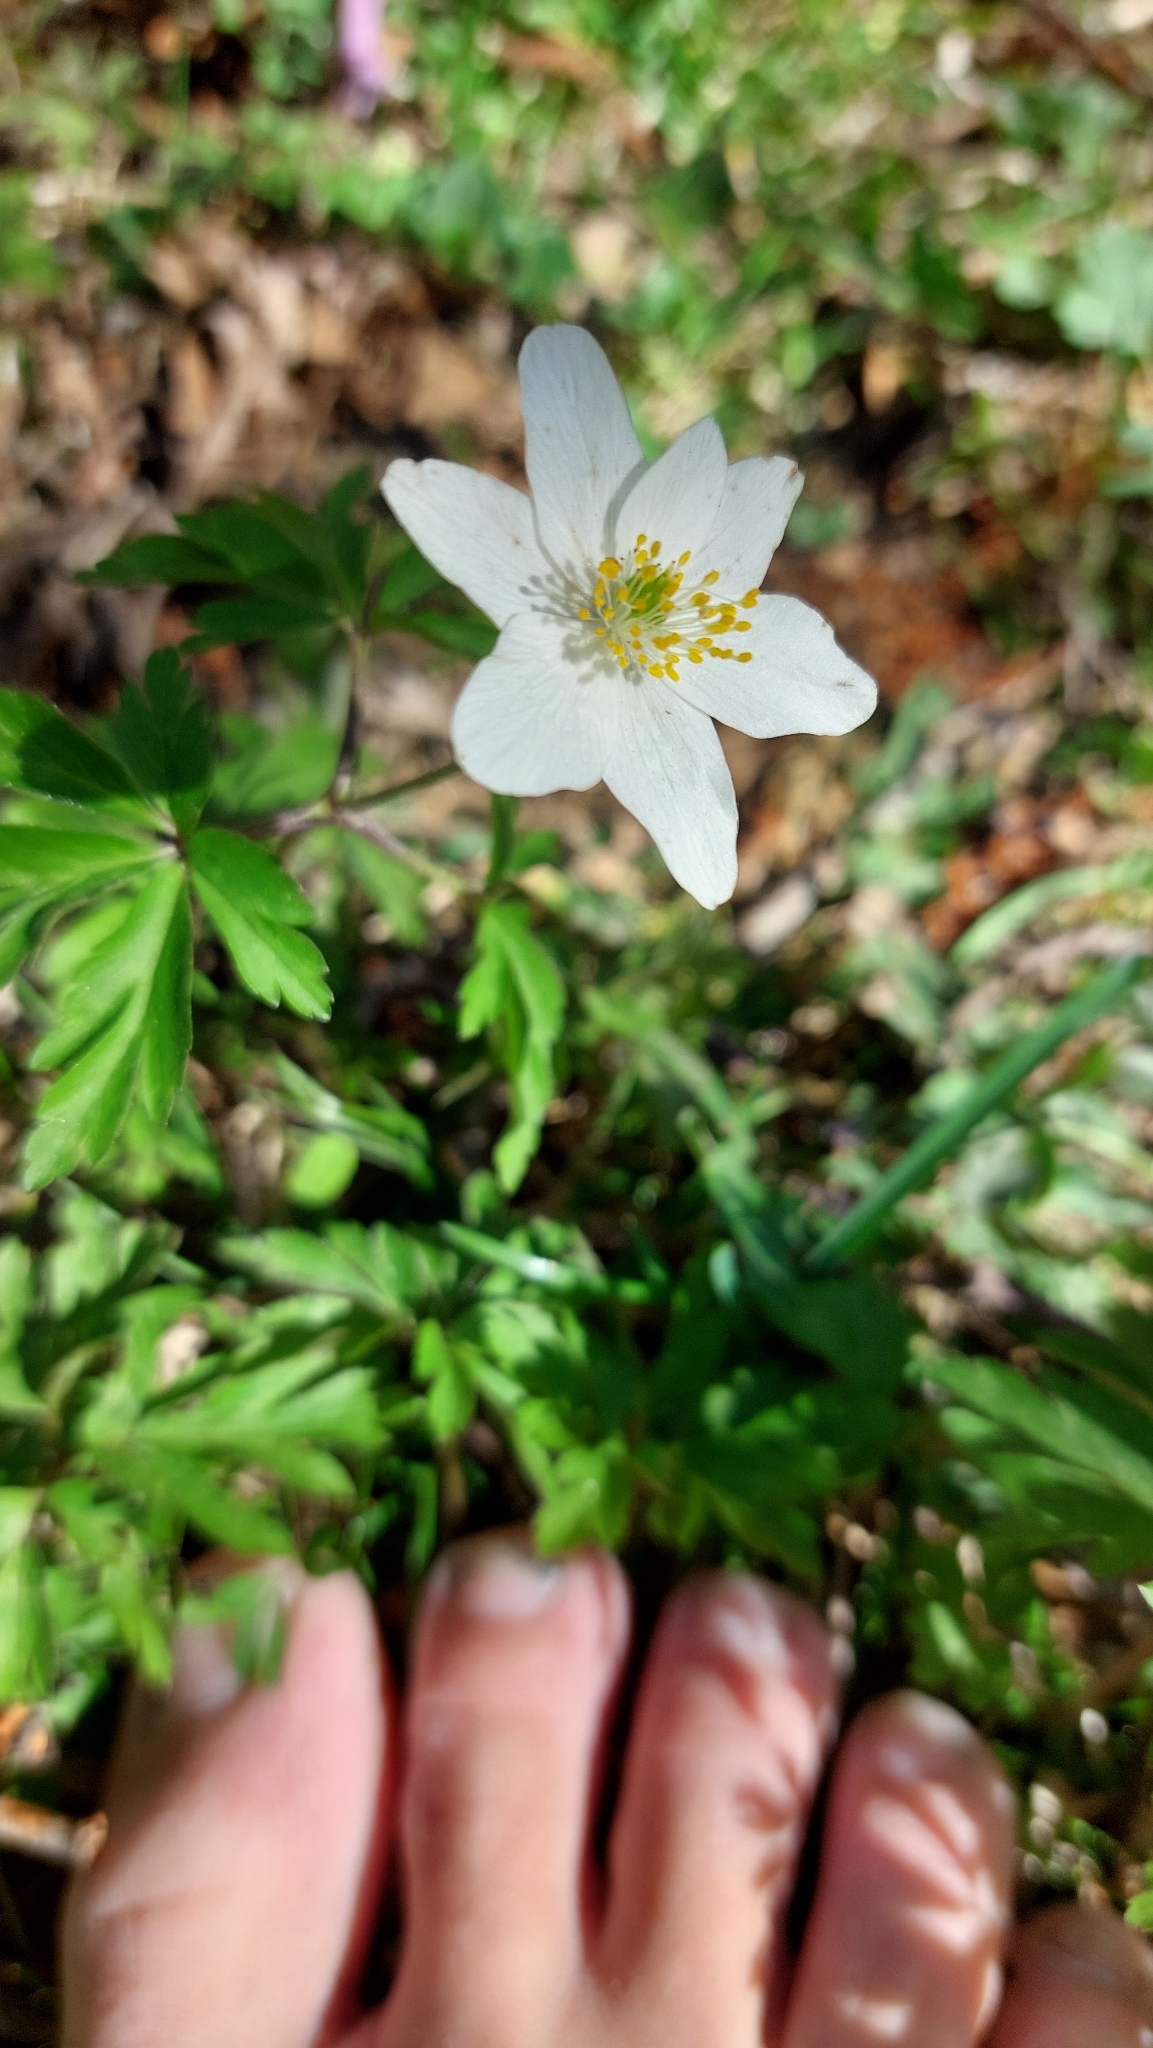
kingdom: Plantae
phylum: Tracheophyta
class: Magnoliopsida
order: Ranunculales
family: Ranunculaceae
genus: Anemone
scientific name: Anemone nemorosa
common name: Wood anemone
